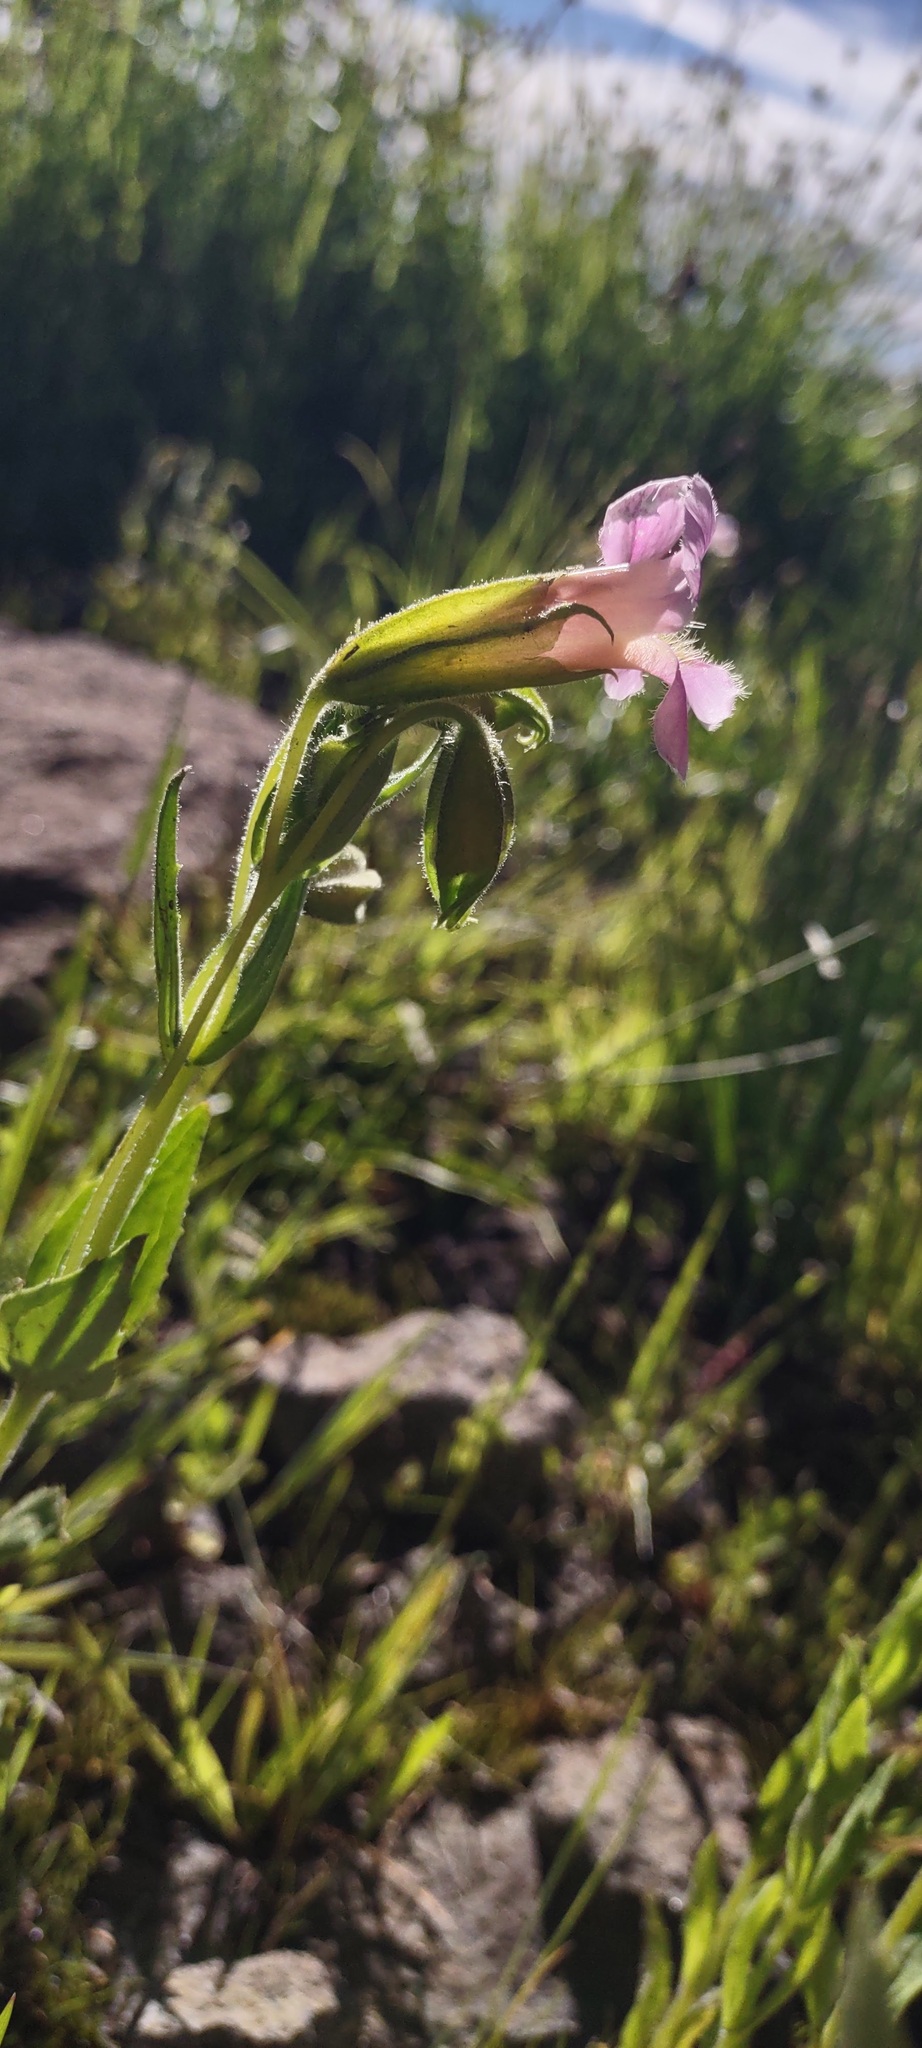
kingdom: Plantae
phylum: Tracheophyta
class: Magnoliopsida
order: Lamiales
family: Phrymaceae
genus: Erythranthe
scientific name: Erythranthe erubescens
